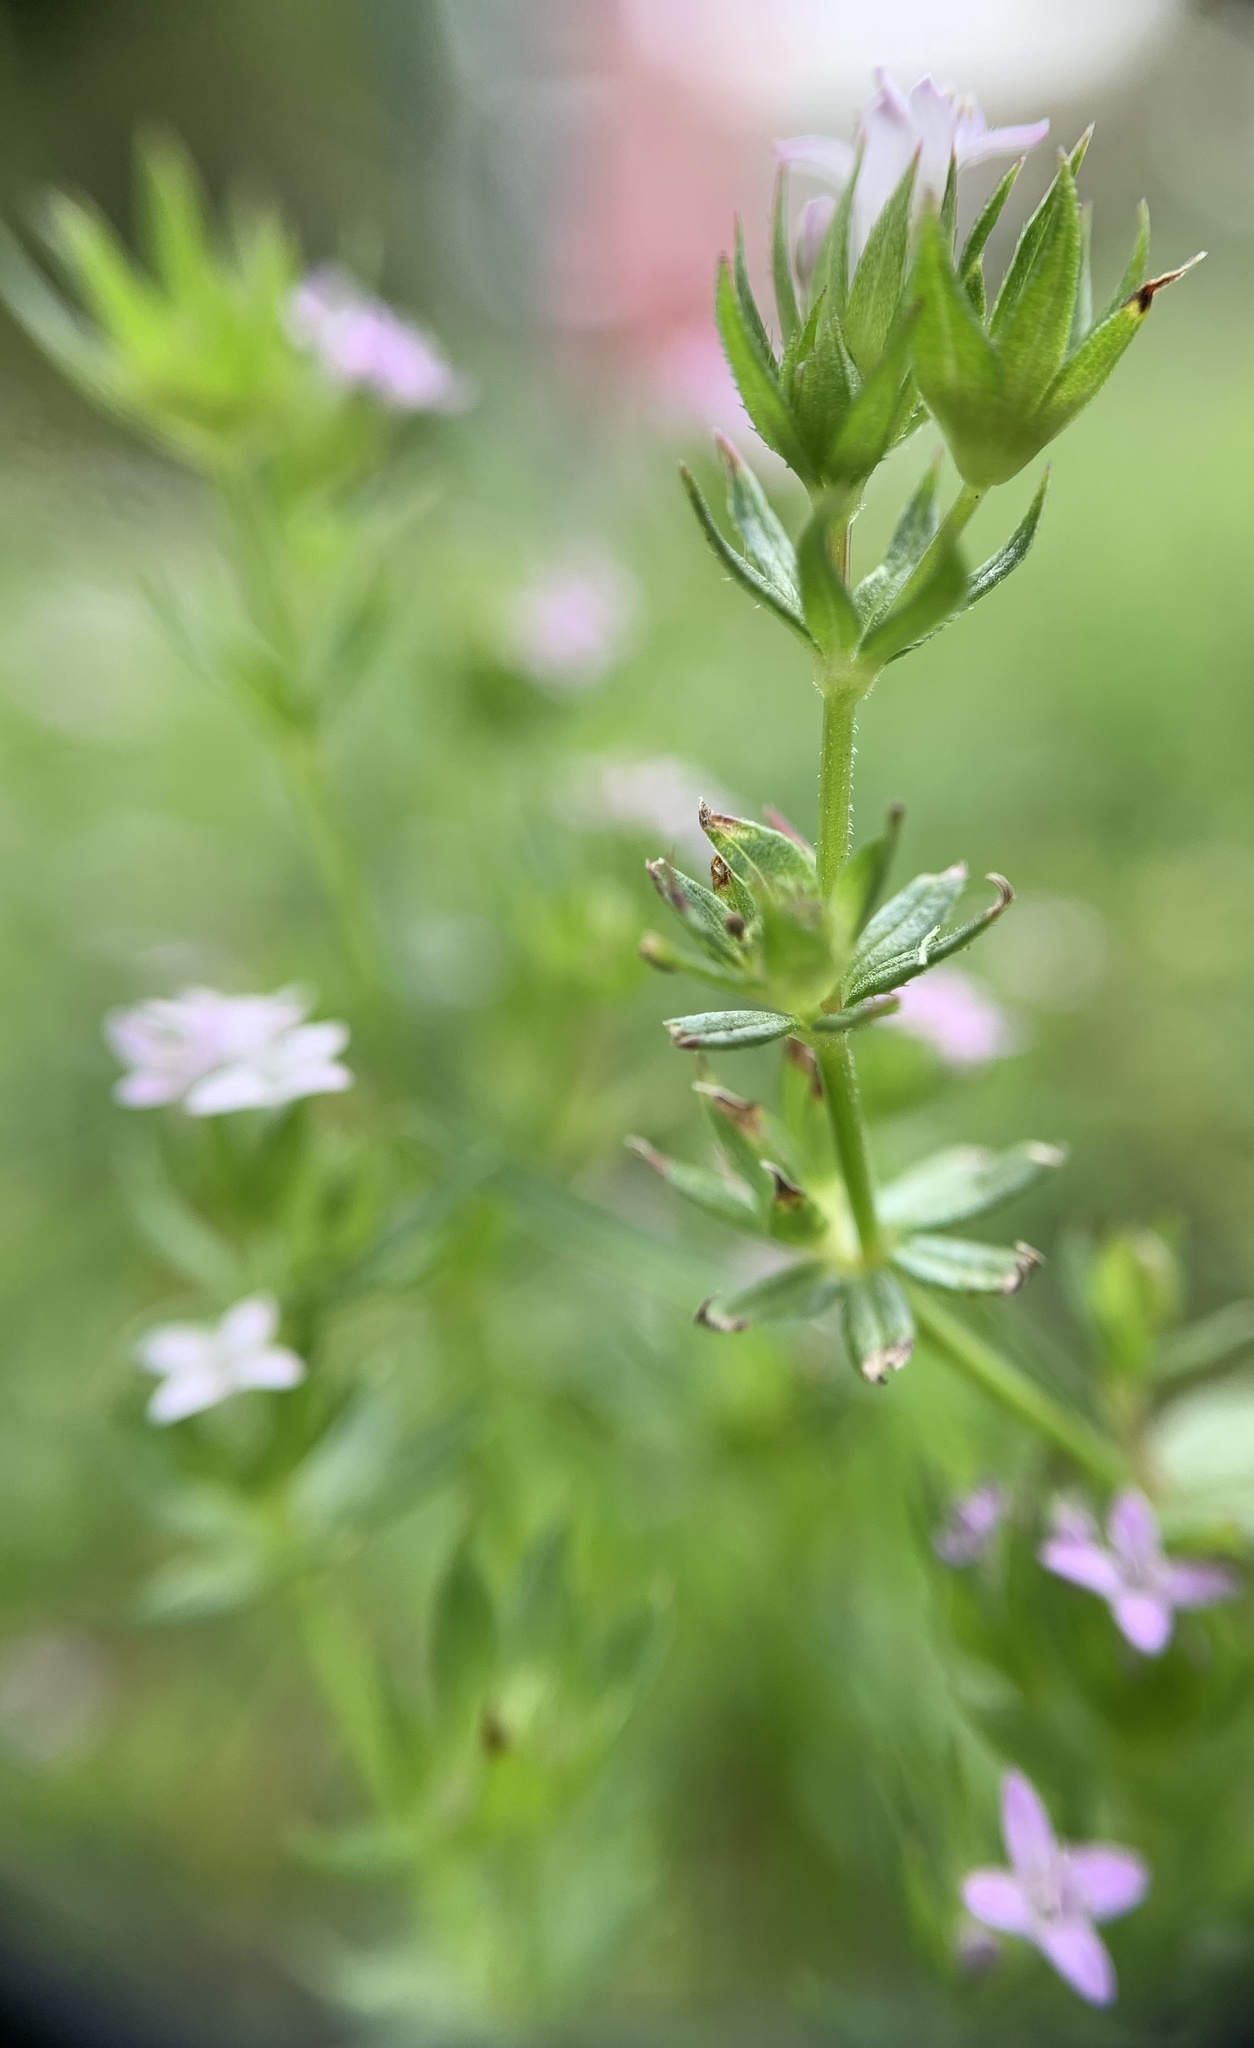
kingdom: Plantae
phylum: Tracheophyta
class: Magnoliopsida
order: Gentianales
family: Rubiaceae
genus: Sherardia
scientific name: Sherardia arvensis
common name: Field madder
